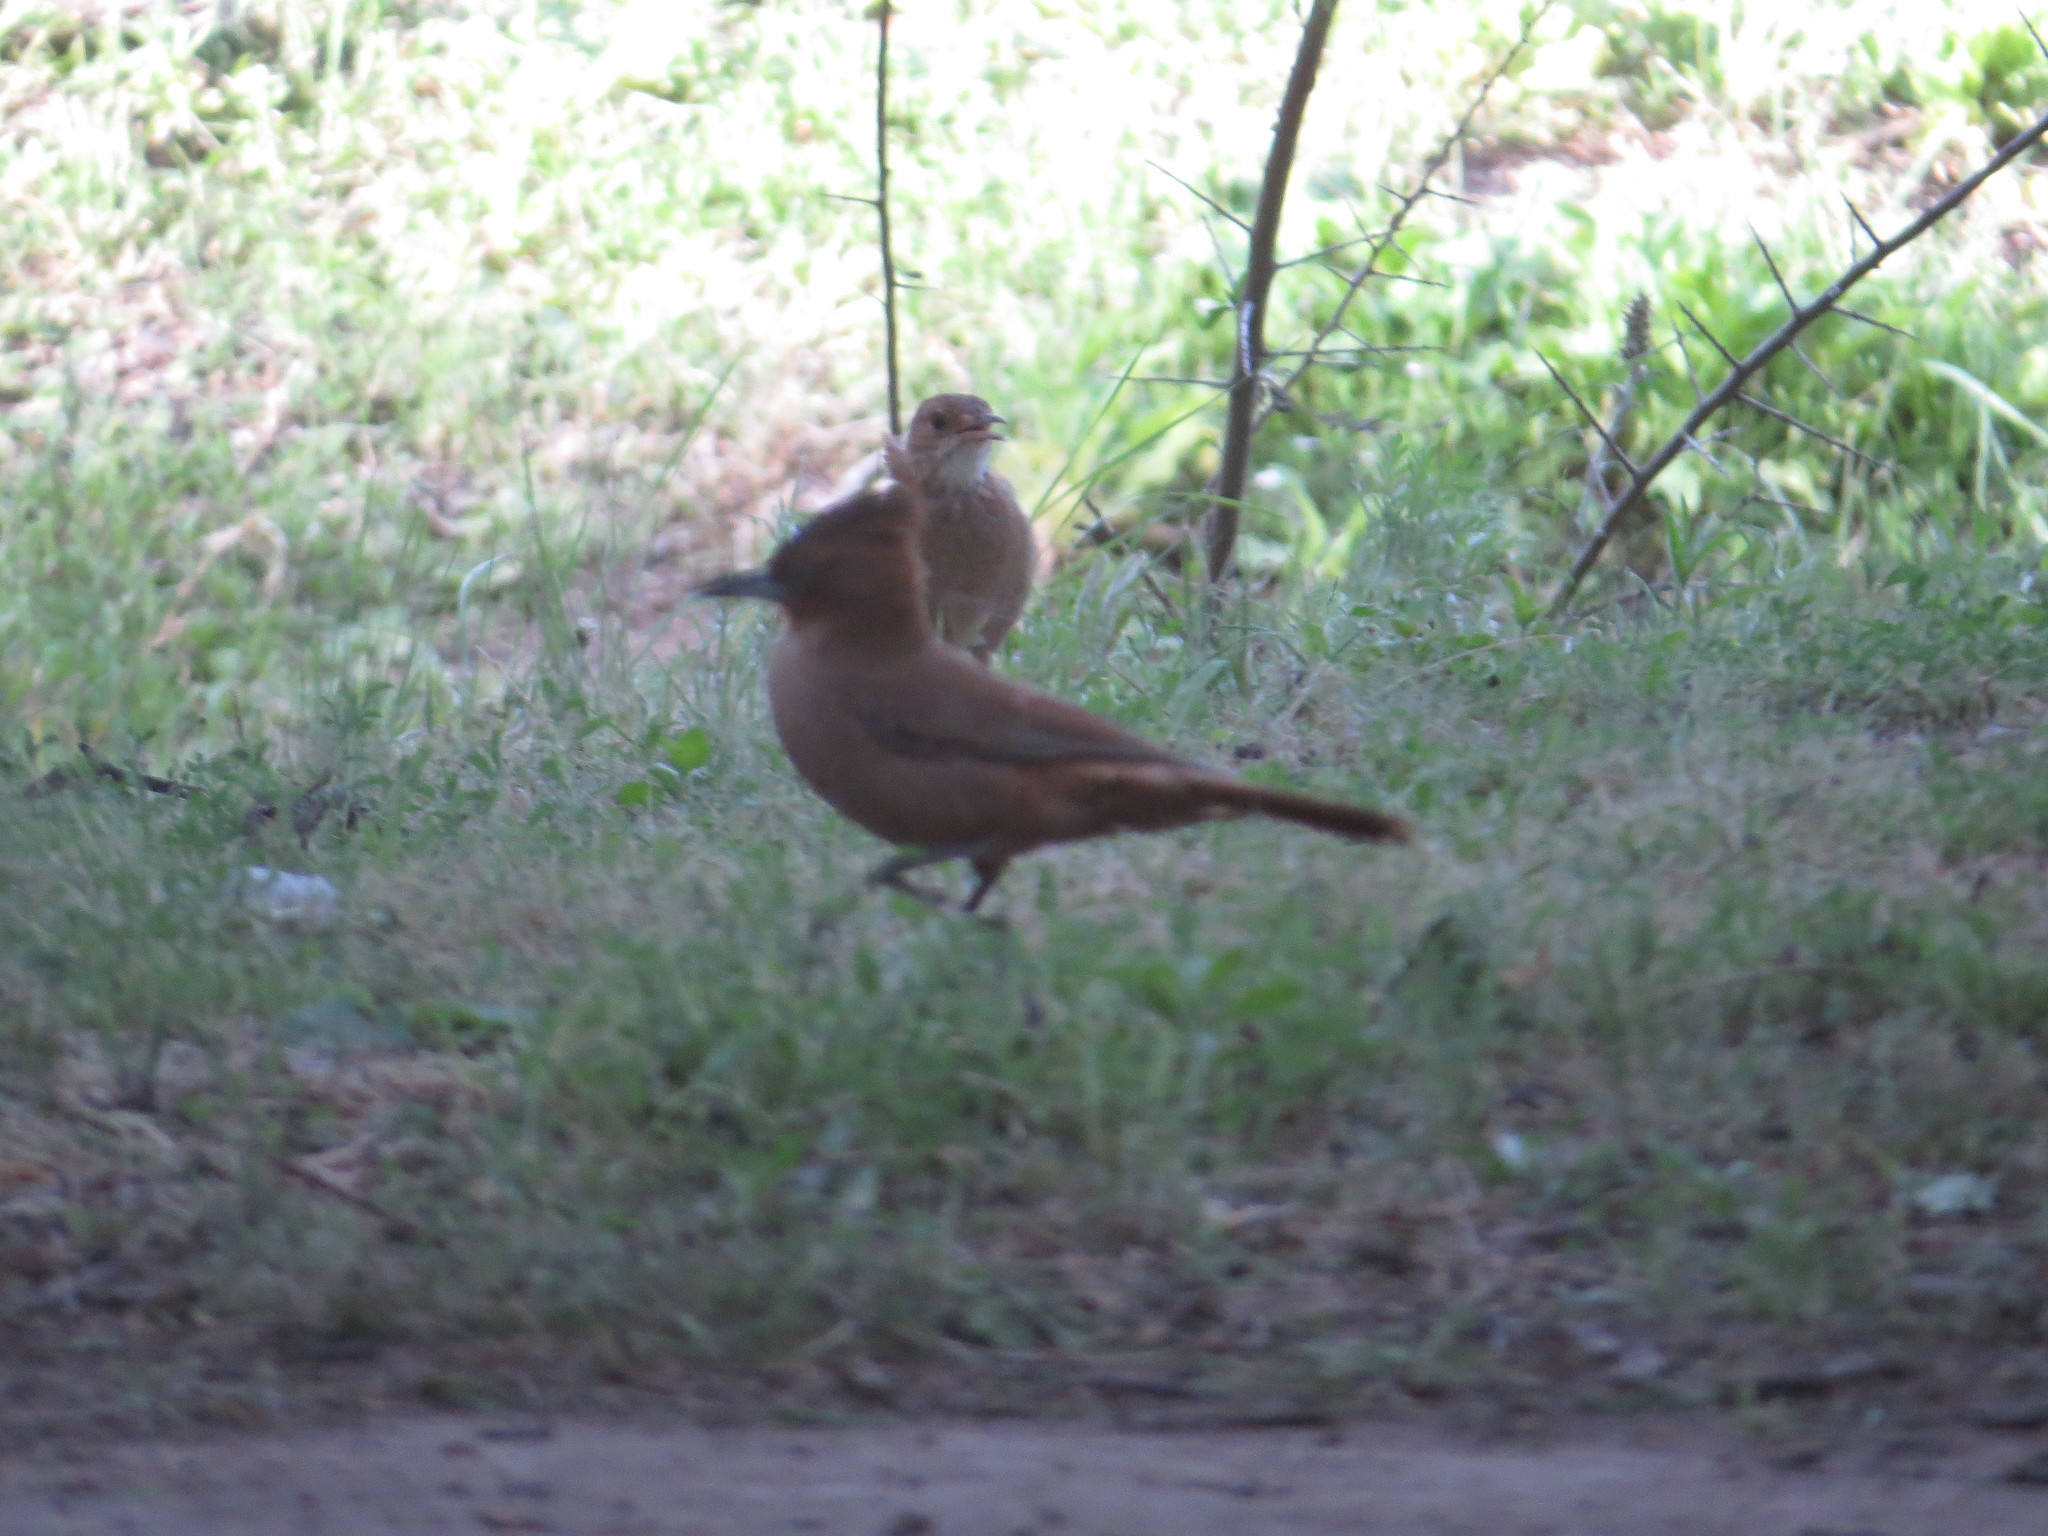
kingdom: Animalia
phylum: Chordata
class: Aves
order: Passeriformes
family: Furnariidae
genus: Furnarius
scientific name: Furnarius rufus
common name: Rufous hornero
